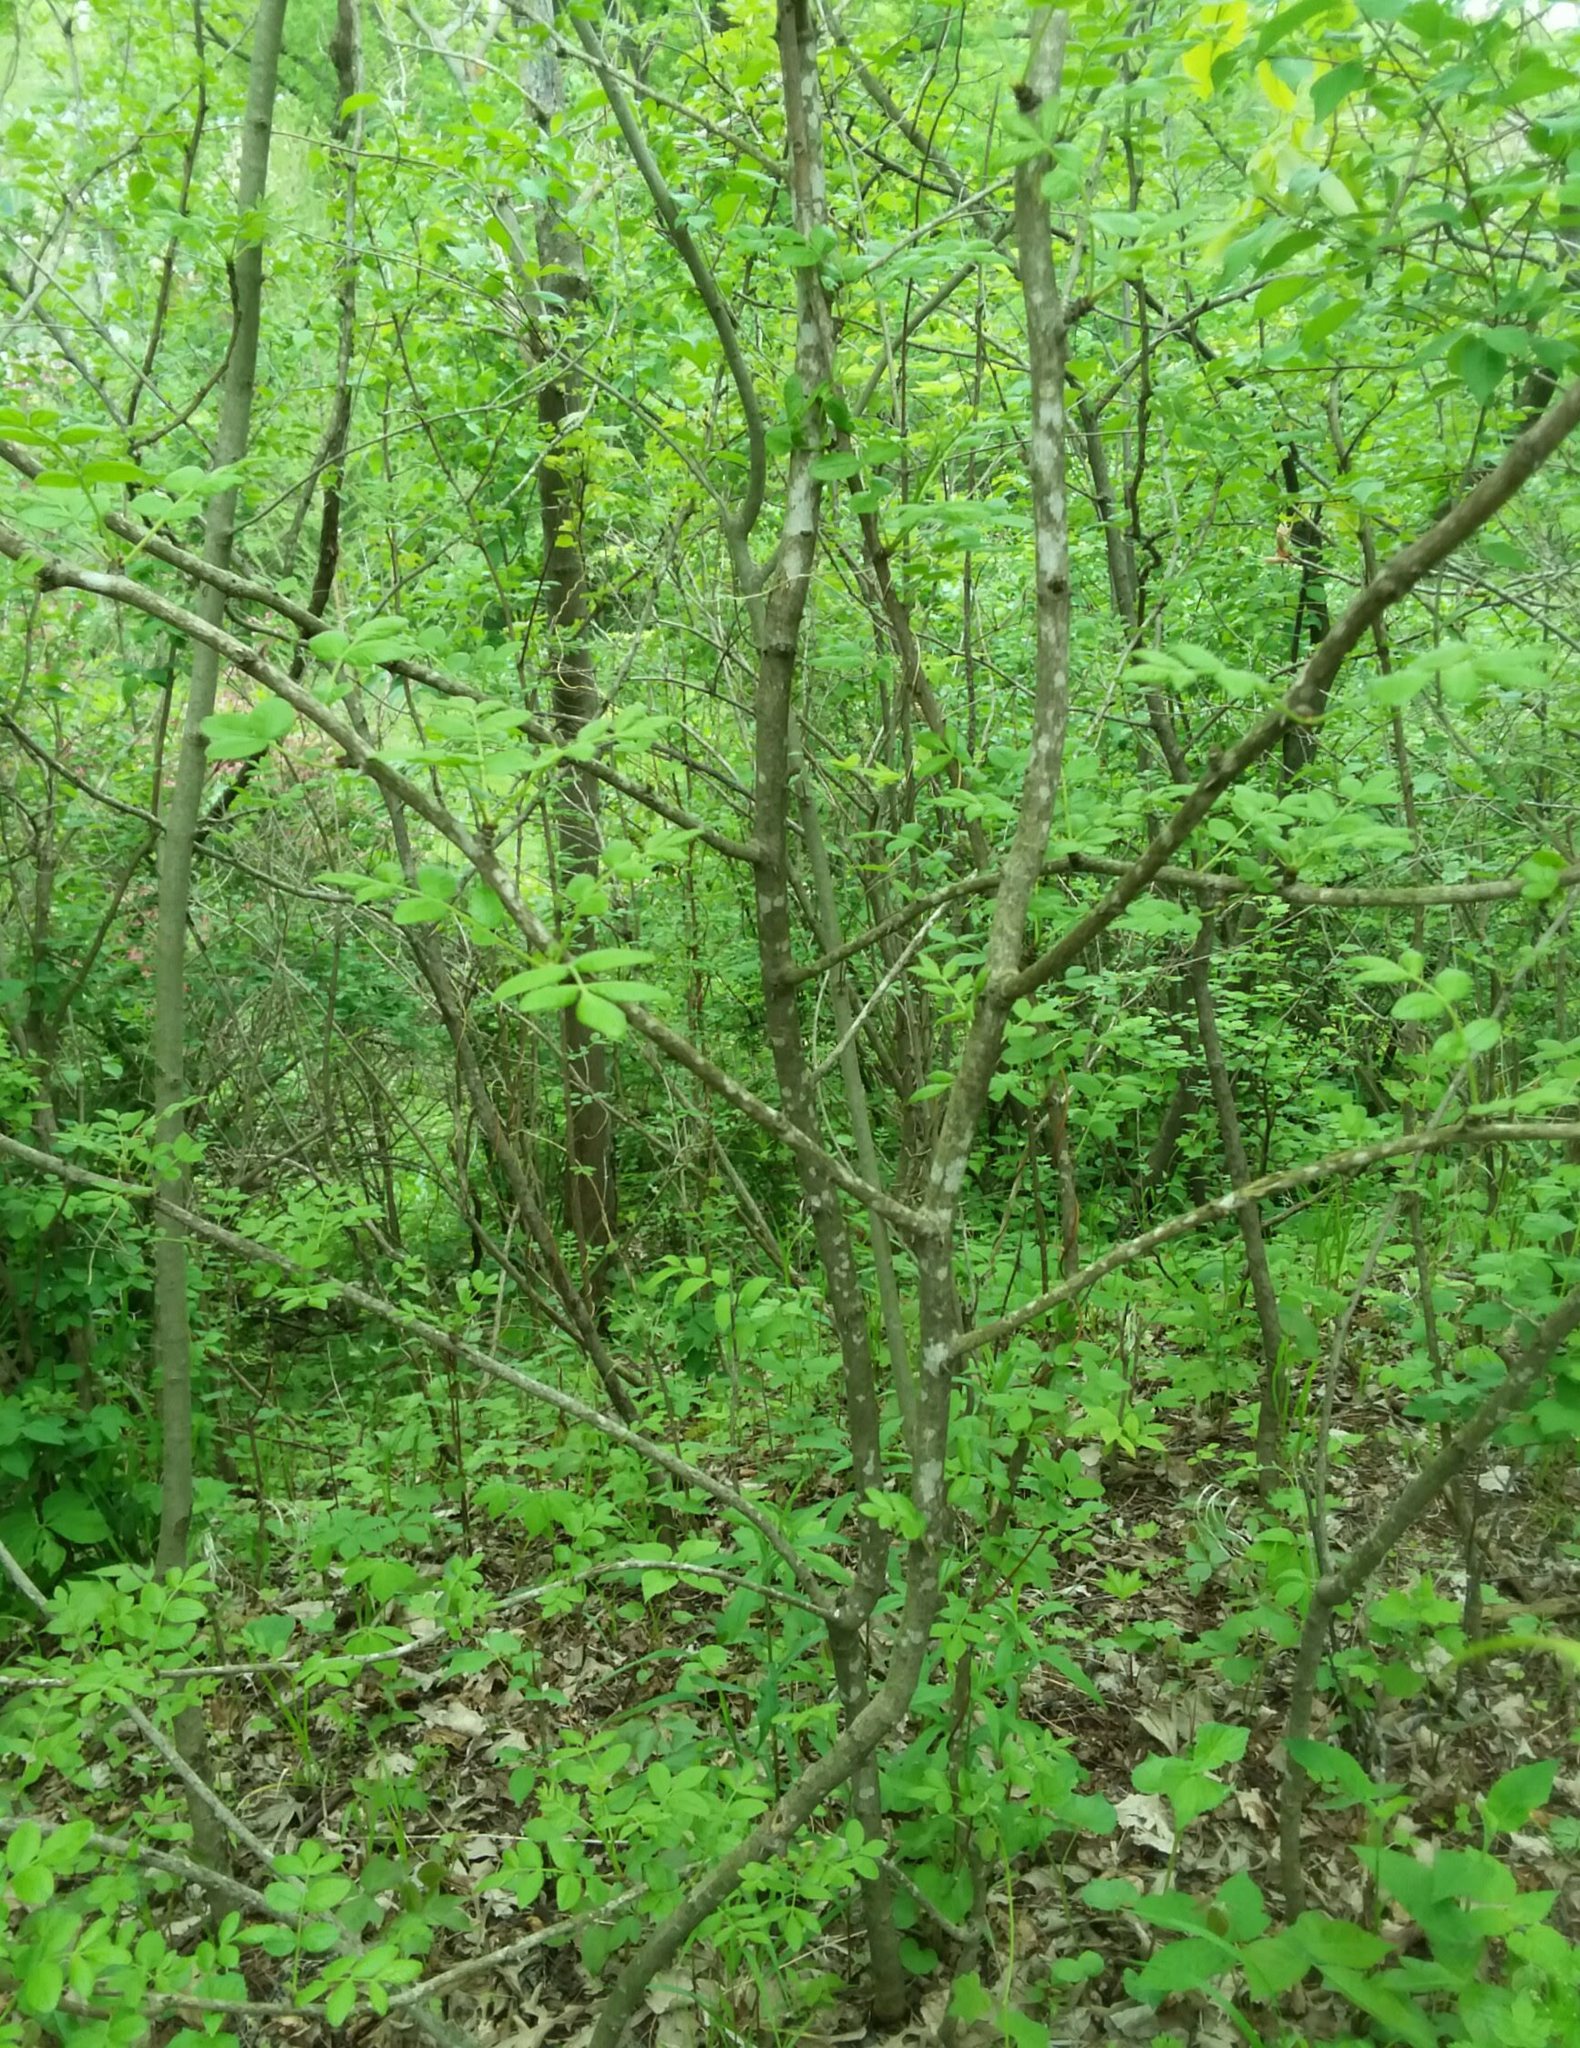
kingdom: Plantae
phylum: Tracheophyta
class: Magnoliopsida
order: Sapindales
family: Rutaceae
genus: Zanthoxylum
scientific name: Zanthoxylum americanum
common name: Northern prickly-ash
